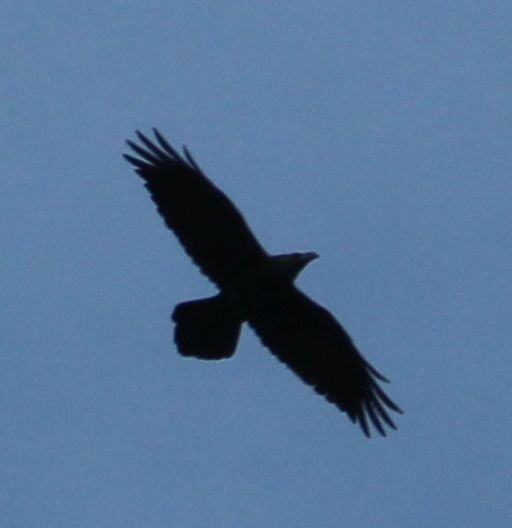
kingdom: Animalia
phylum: Chordata
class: Aves
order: Passeriformes
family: Corvidae
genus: Corvus
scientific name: Corvus corax
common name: Common raven
